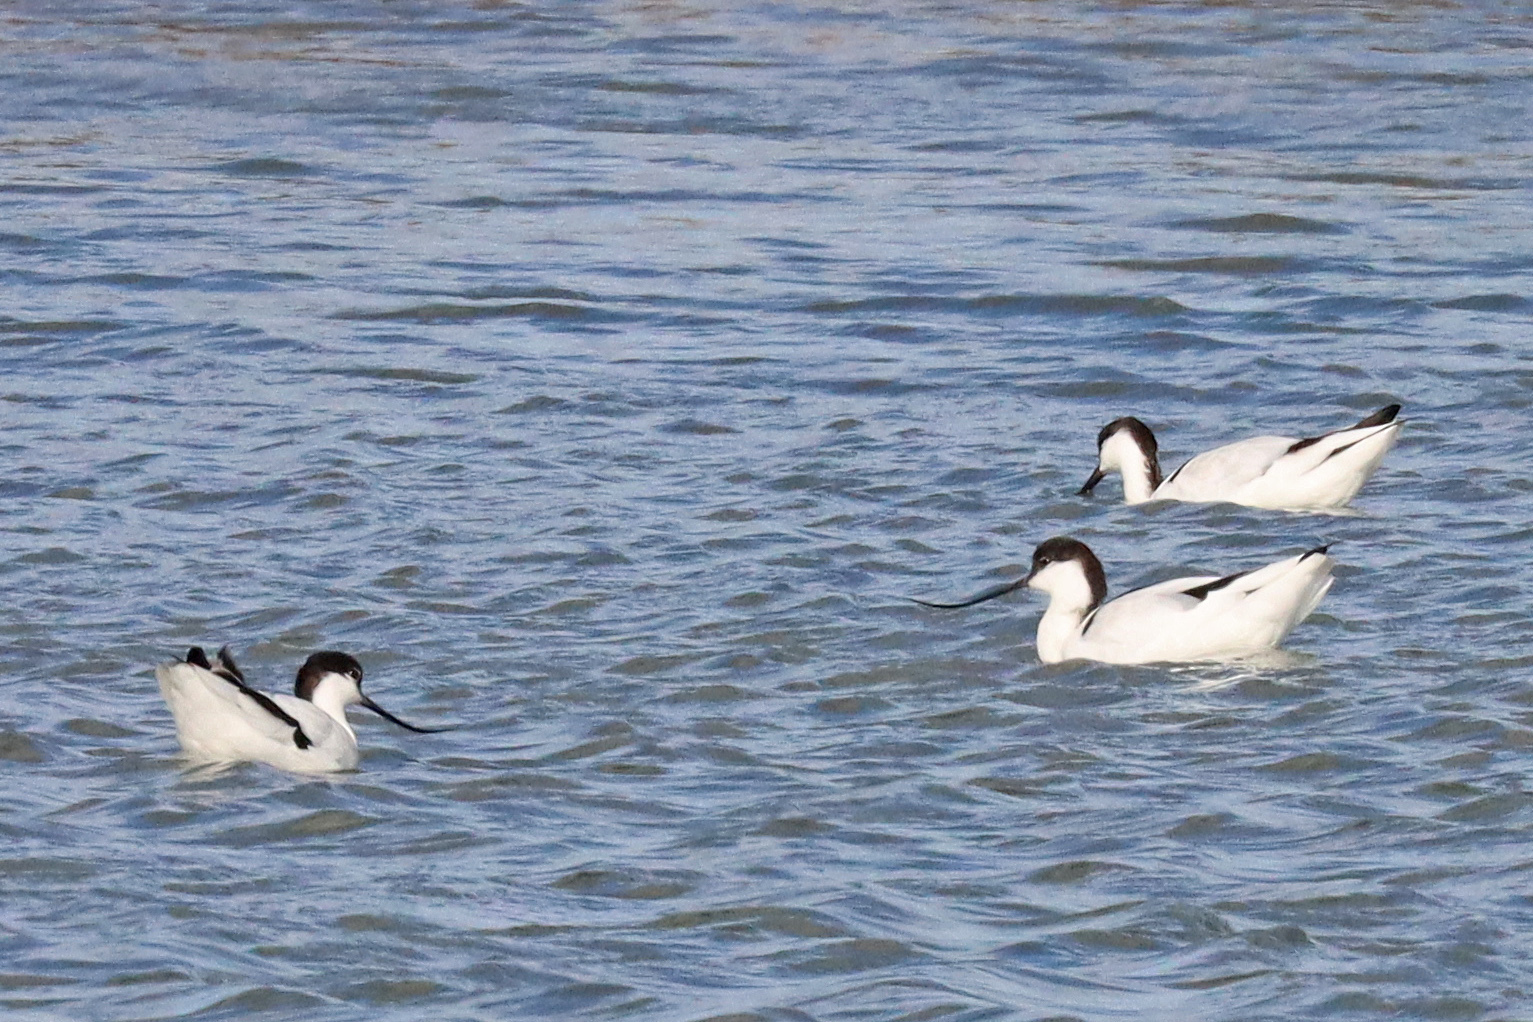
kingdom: Animalia
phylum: Chordata
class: Aves
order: Charadriiformes
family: Recurvirostridae
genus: Recurvirostra
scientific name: Recurvirostra avosetta
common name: Pied avocet
